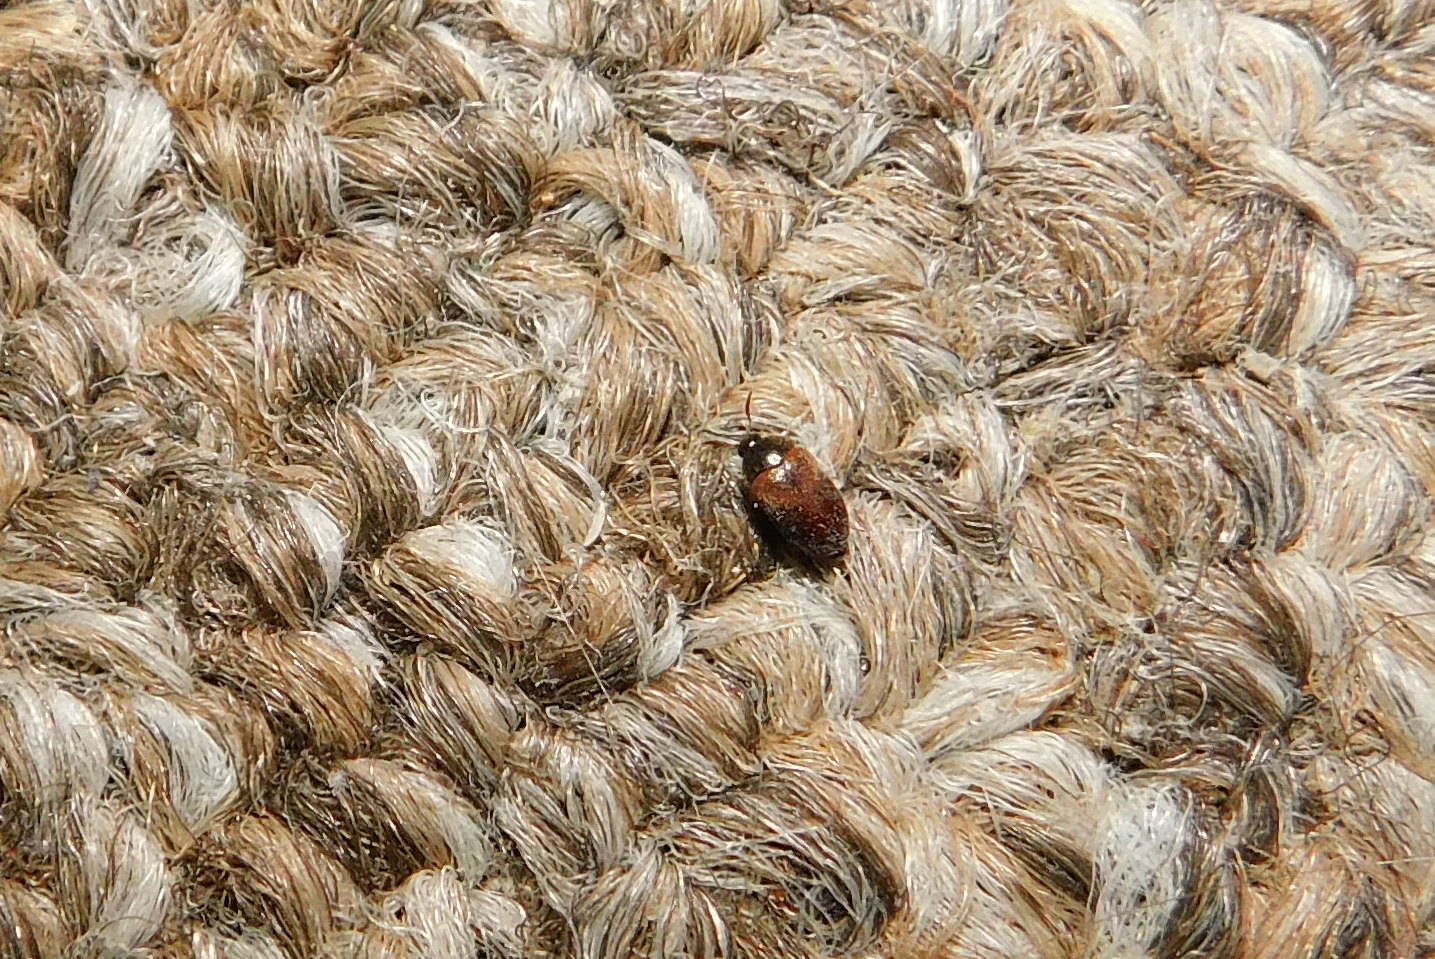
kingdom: Animalia
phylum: Arthropoda
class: Insecta
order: Coleoptera
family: Dermestidae
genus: Attagenus
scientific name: Attagenus smirnovi
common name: Brown carpet beetle
